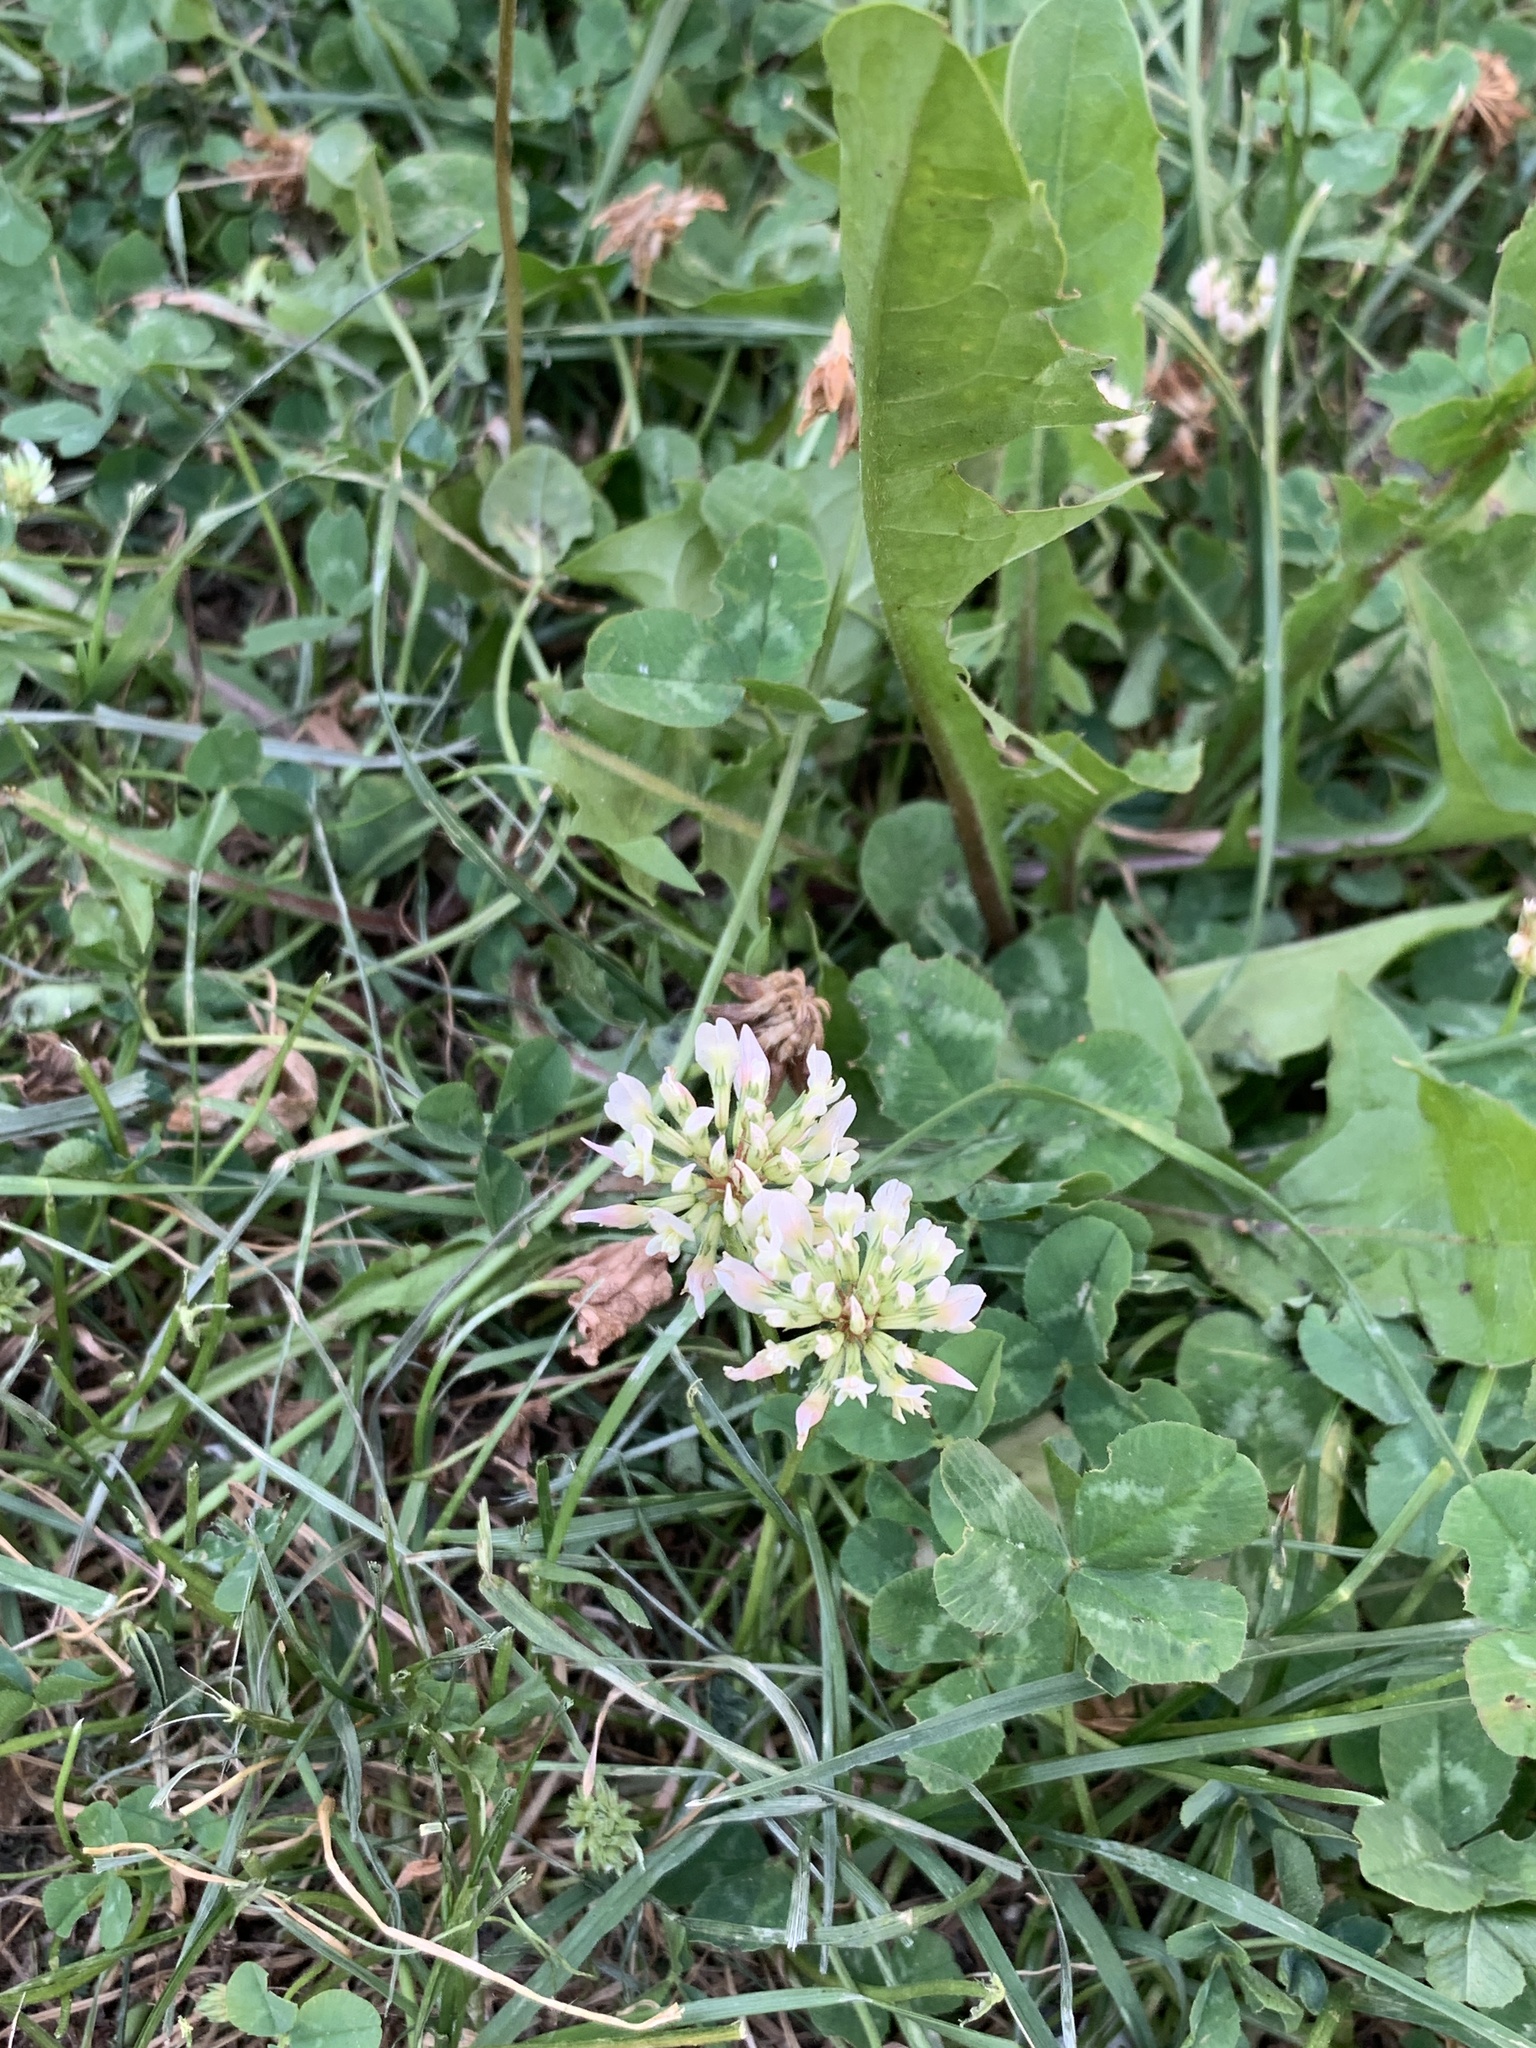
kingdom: Plantae
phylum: Tracheophyta
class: Magnoliopsida
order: Fabales
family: Fabaceae
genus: Trifolium
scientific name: Trifolium repens
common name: White clover
